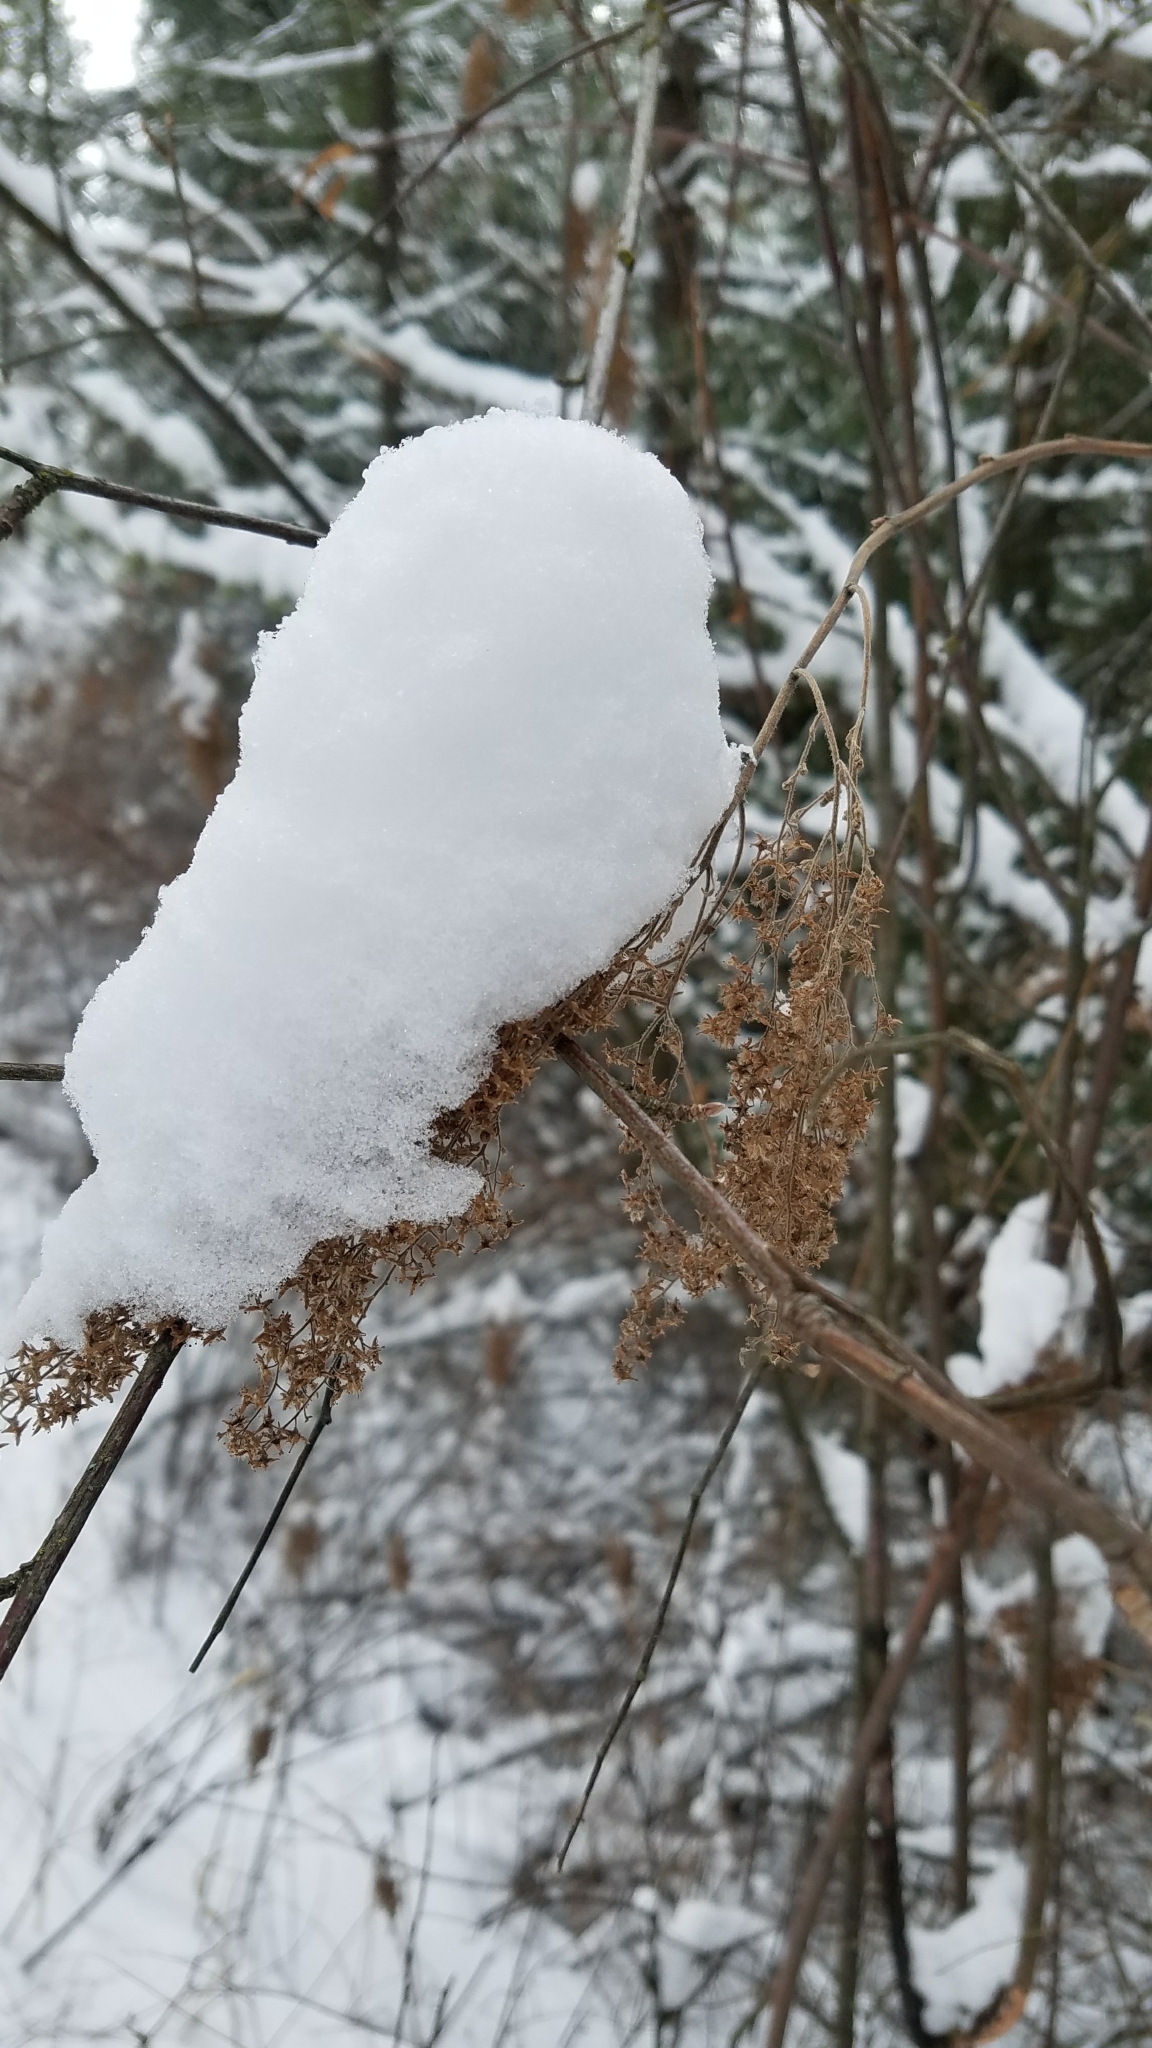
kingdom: Plantae
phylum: Tracheophyta
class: Magnoliopsida
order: Rosales
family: Rosaceae
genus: Holodiscus
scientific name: Holodiscus discolor
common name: Oceanspray
